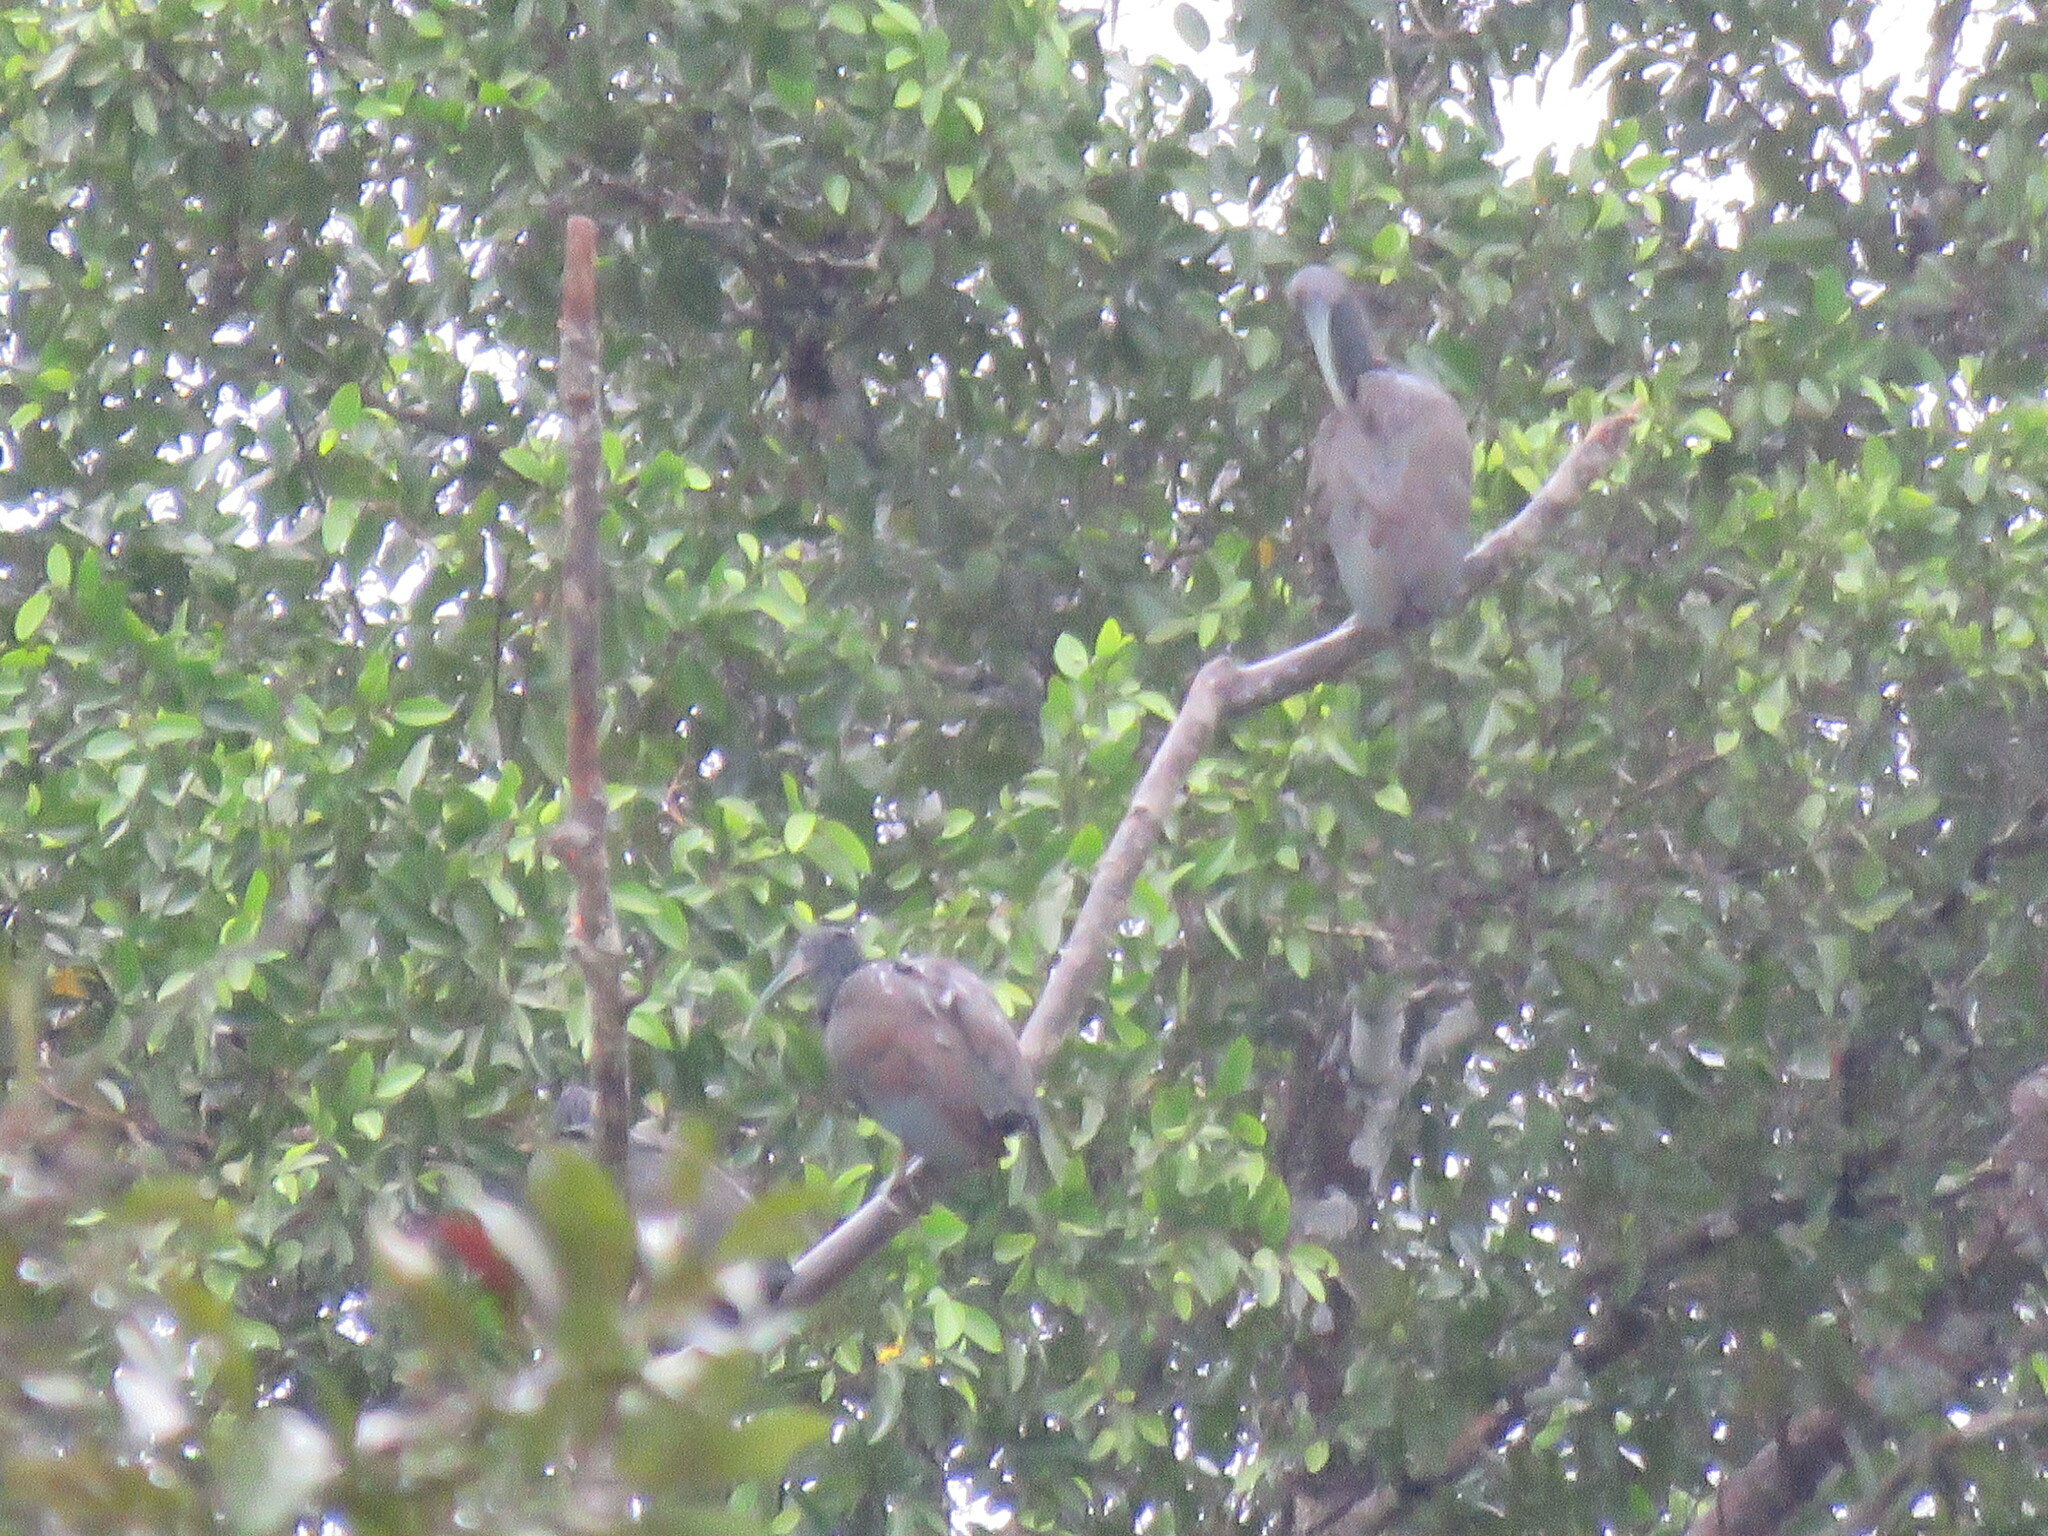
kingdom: Animalia
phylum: Chordata
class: Aves
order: Pelecaniformes
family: Threskiornithidae
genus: Mesembrinibis
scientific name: Mesembrinibis cayennensis
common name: Green ibis
